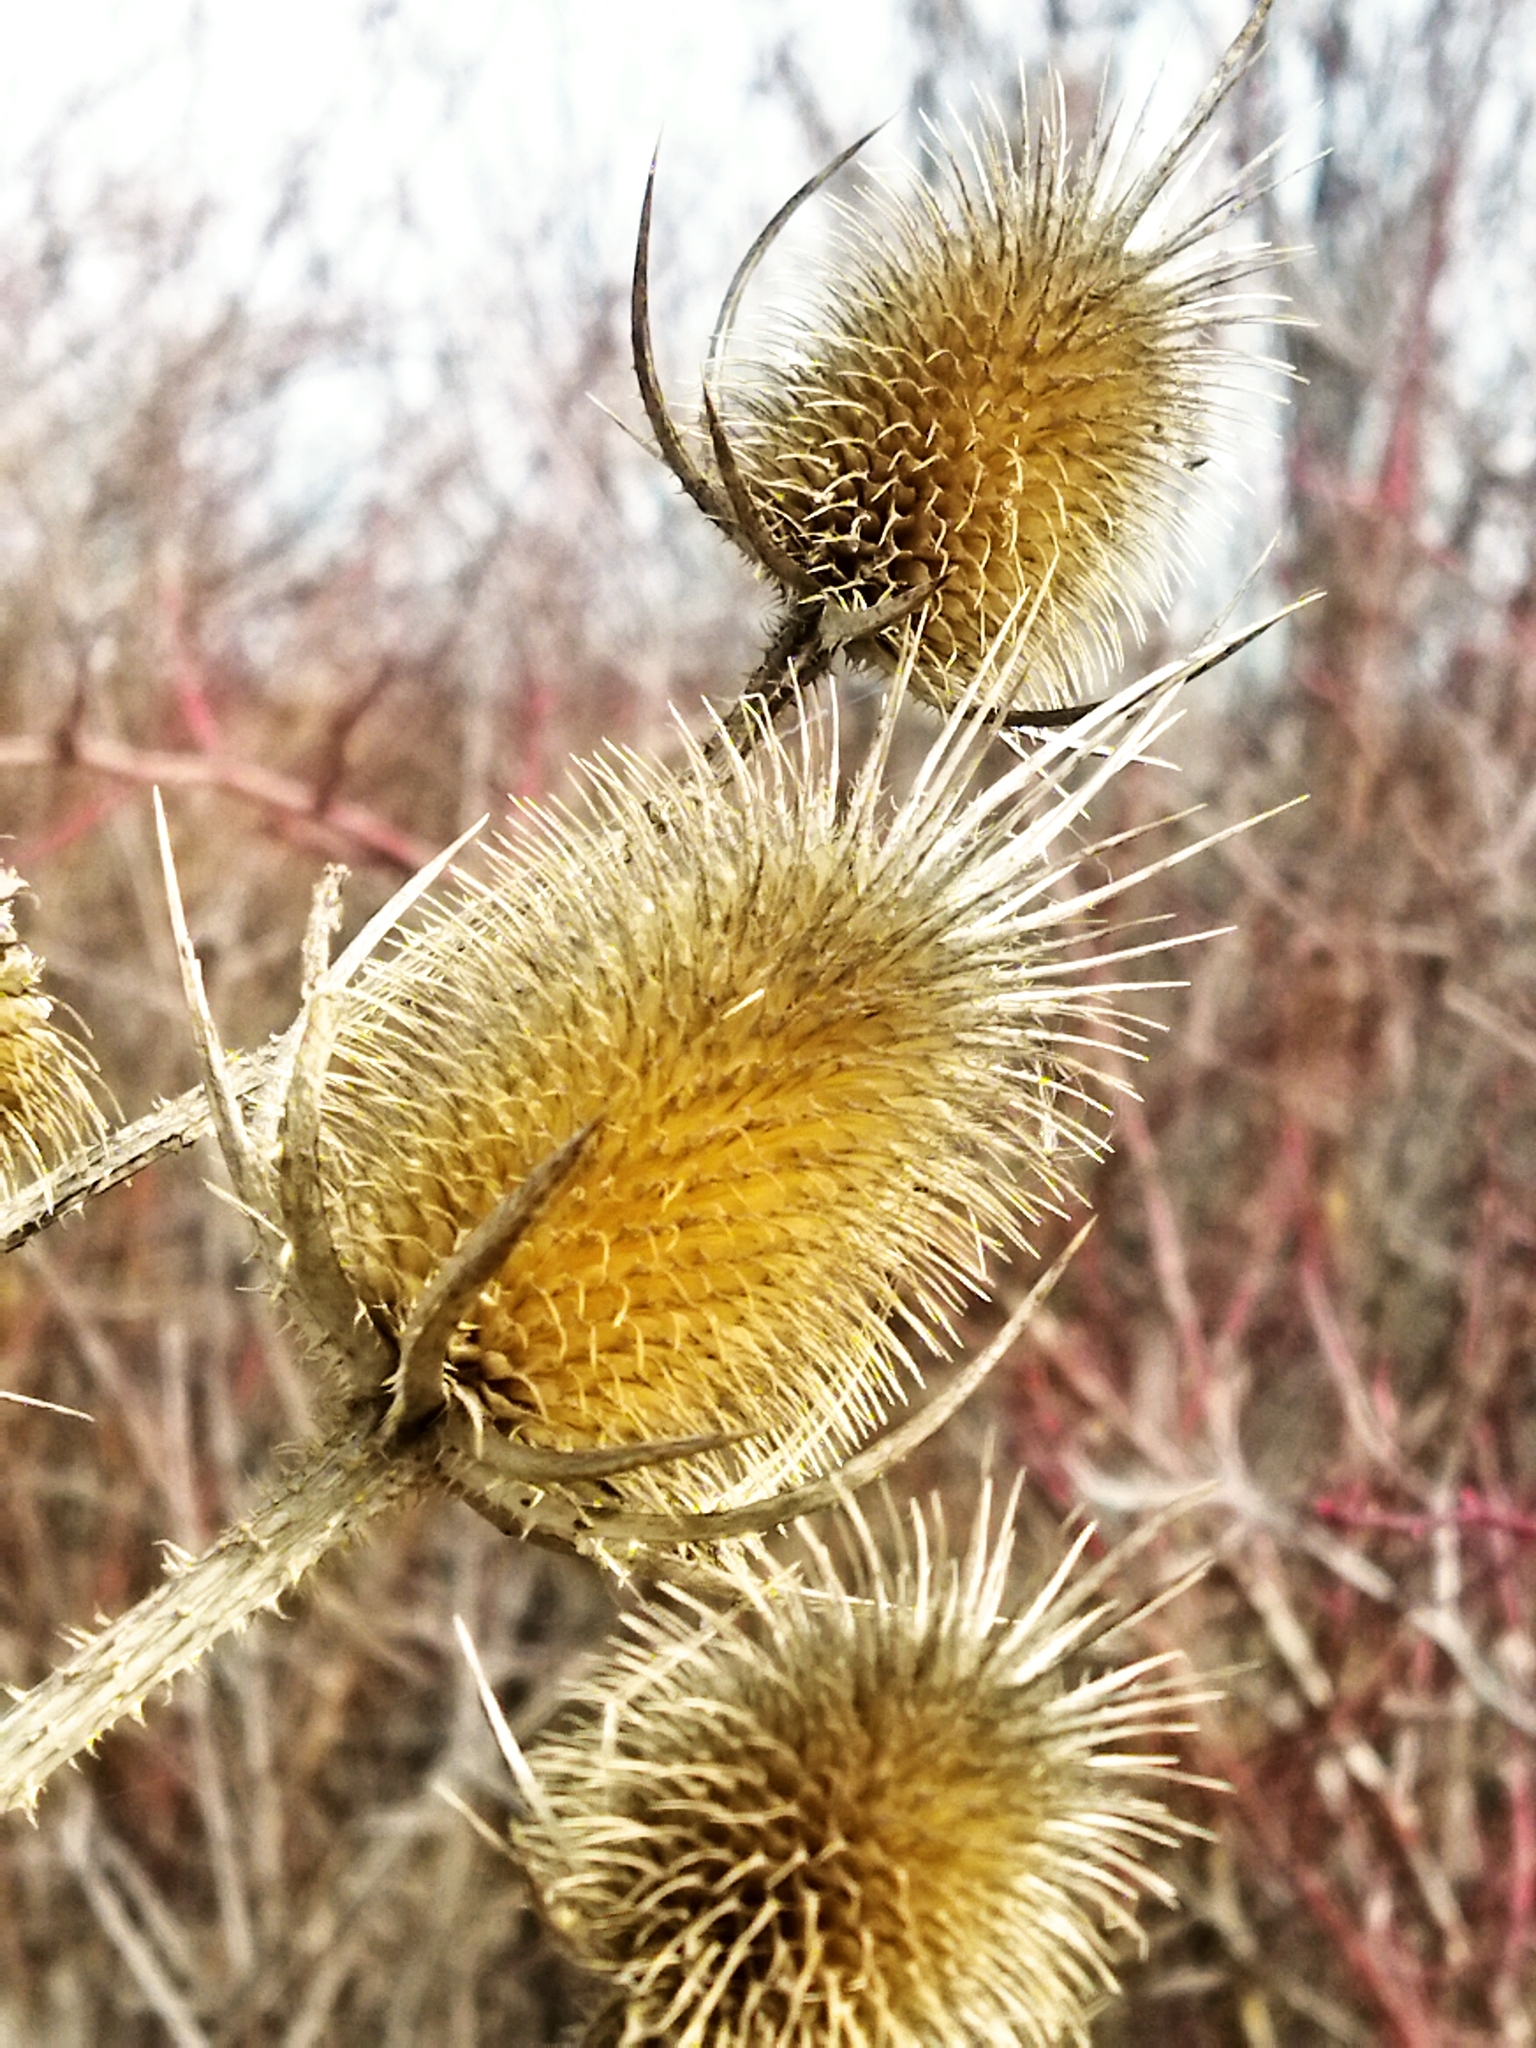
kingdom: Plantae
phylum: Tracheophyta
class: Magnoliopsida
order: Dipsacales
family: Caprifoliaceae
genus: Dipsacus
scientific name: Dipsacus laciniatus
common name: Cut-leaved teasel
